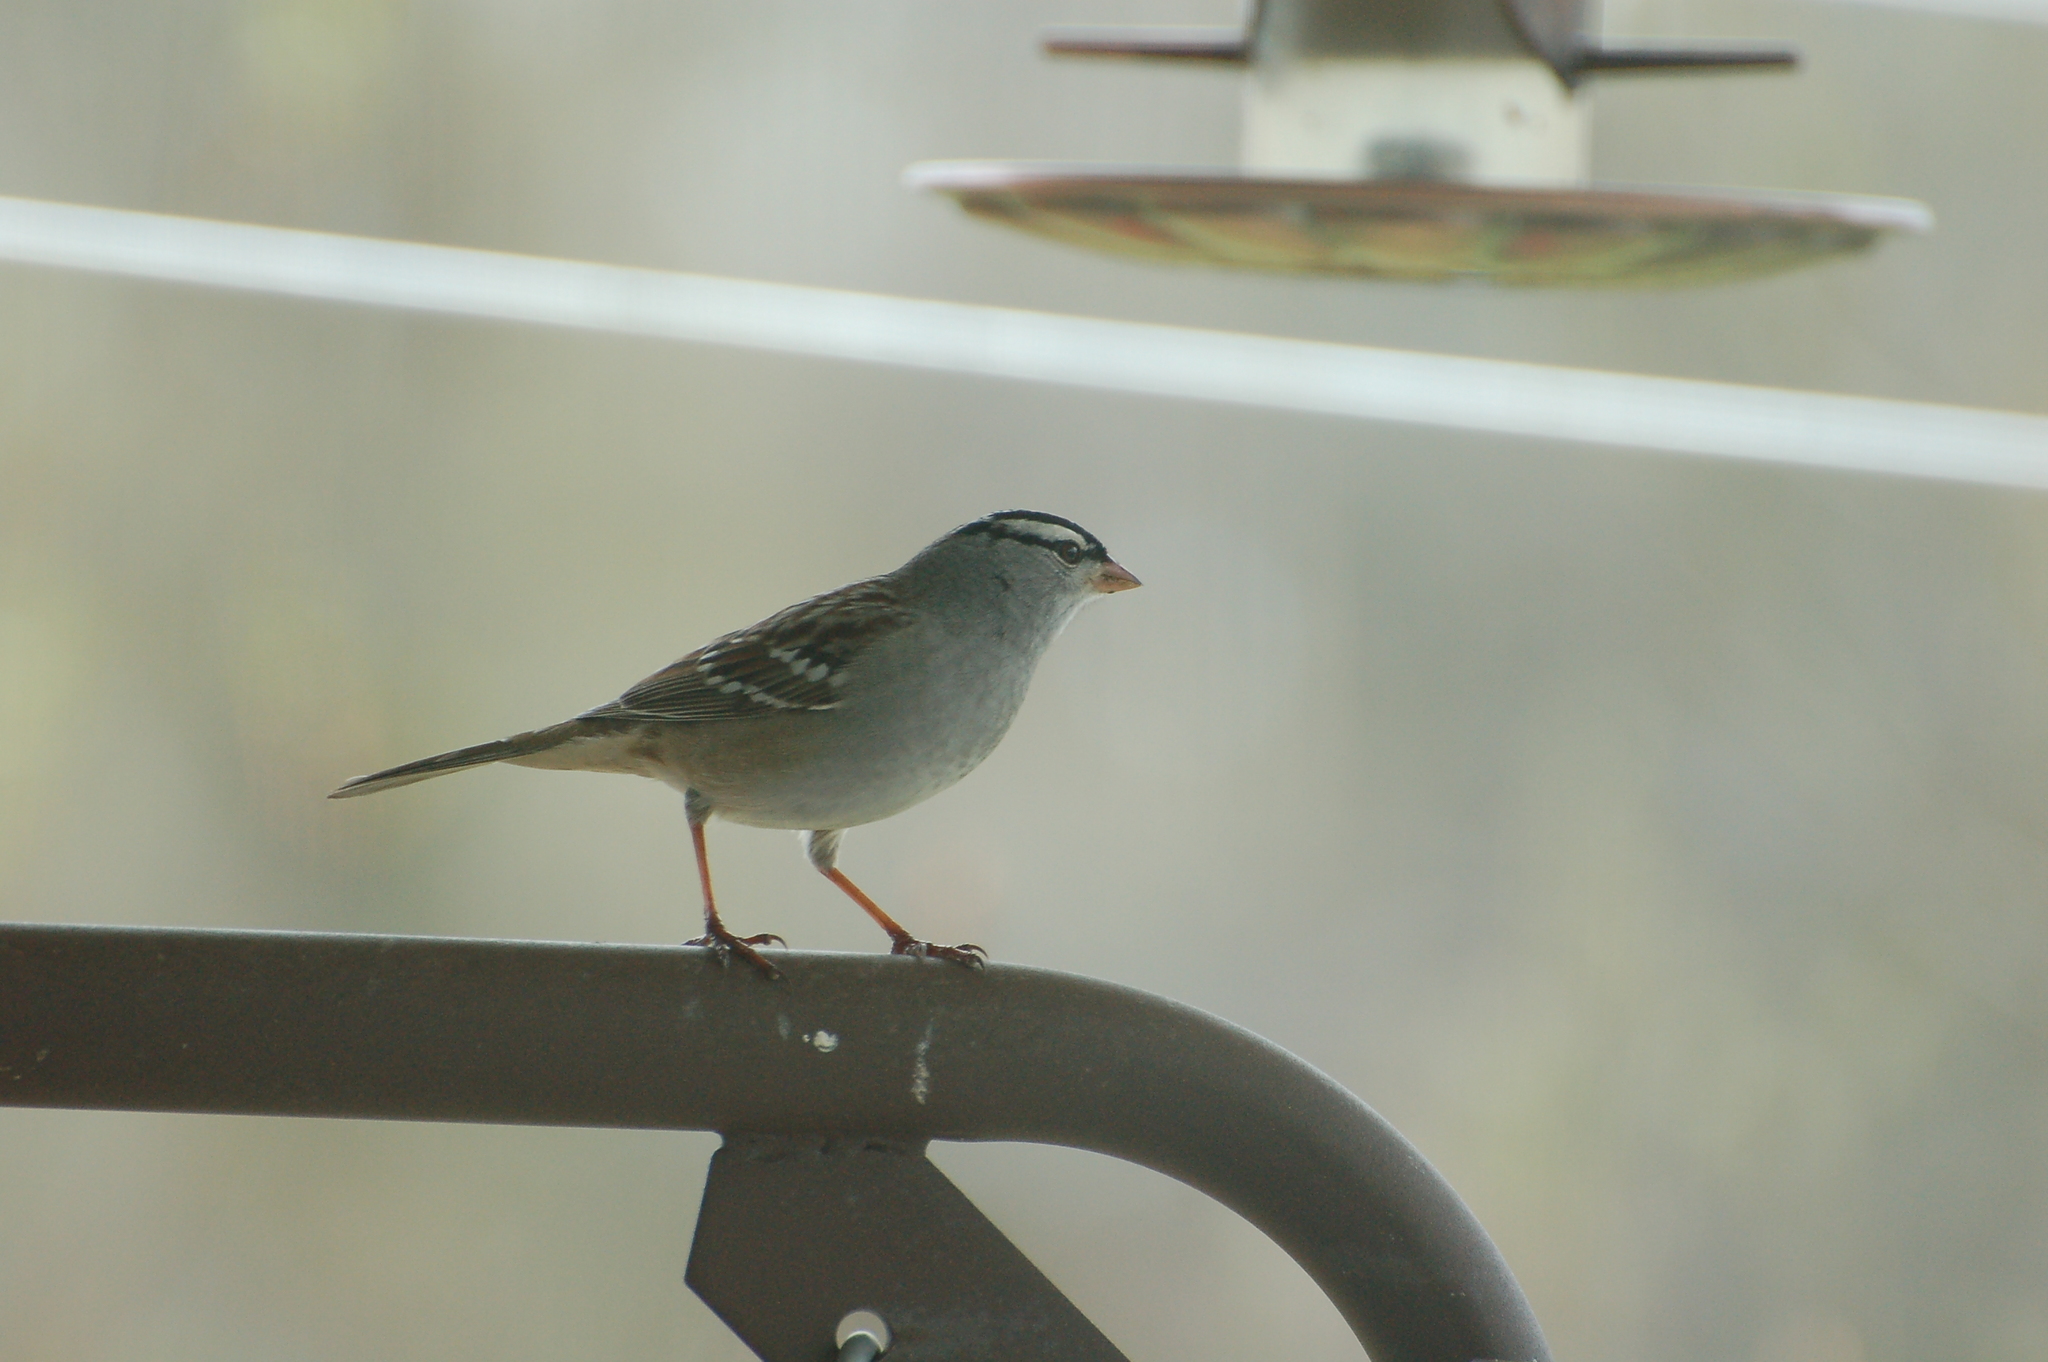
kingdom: Animalia
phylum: Chordata
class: Aves
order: Passeriformes
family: Passerellidae
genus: Zonotrichia
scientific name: Zonotrichia leucophrys
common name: White-crowned sparrow
